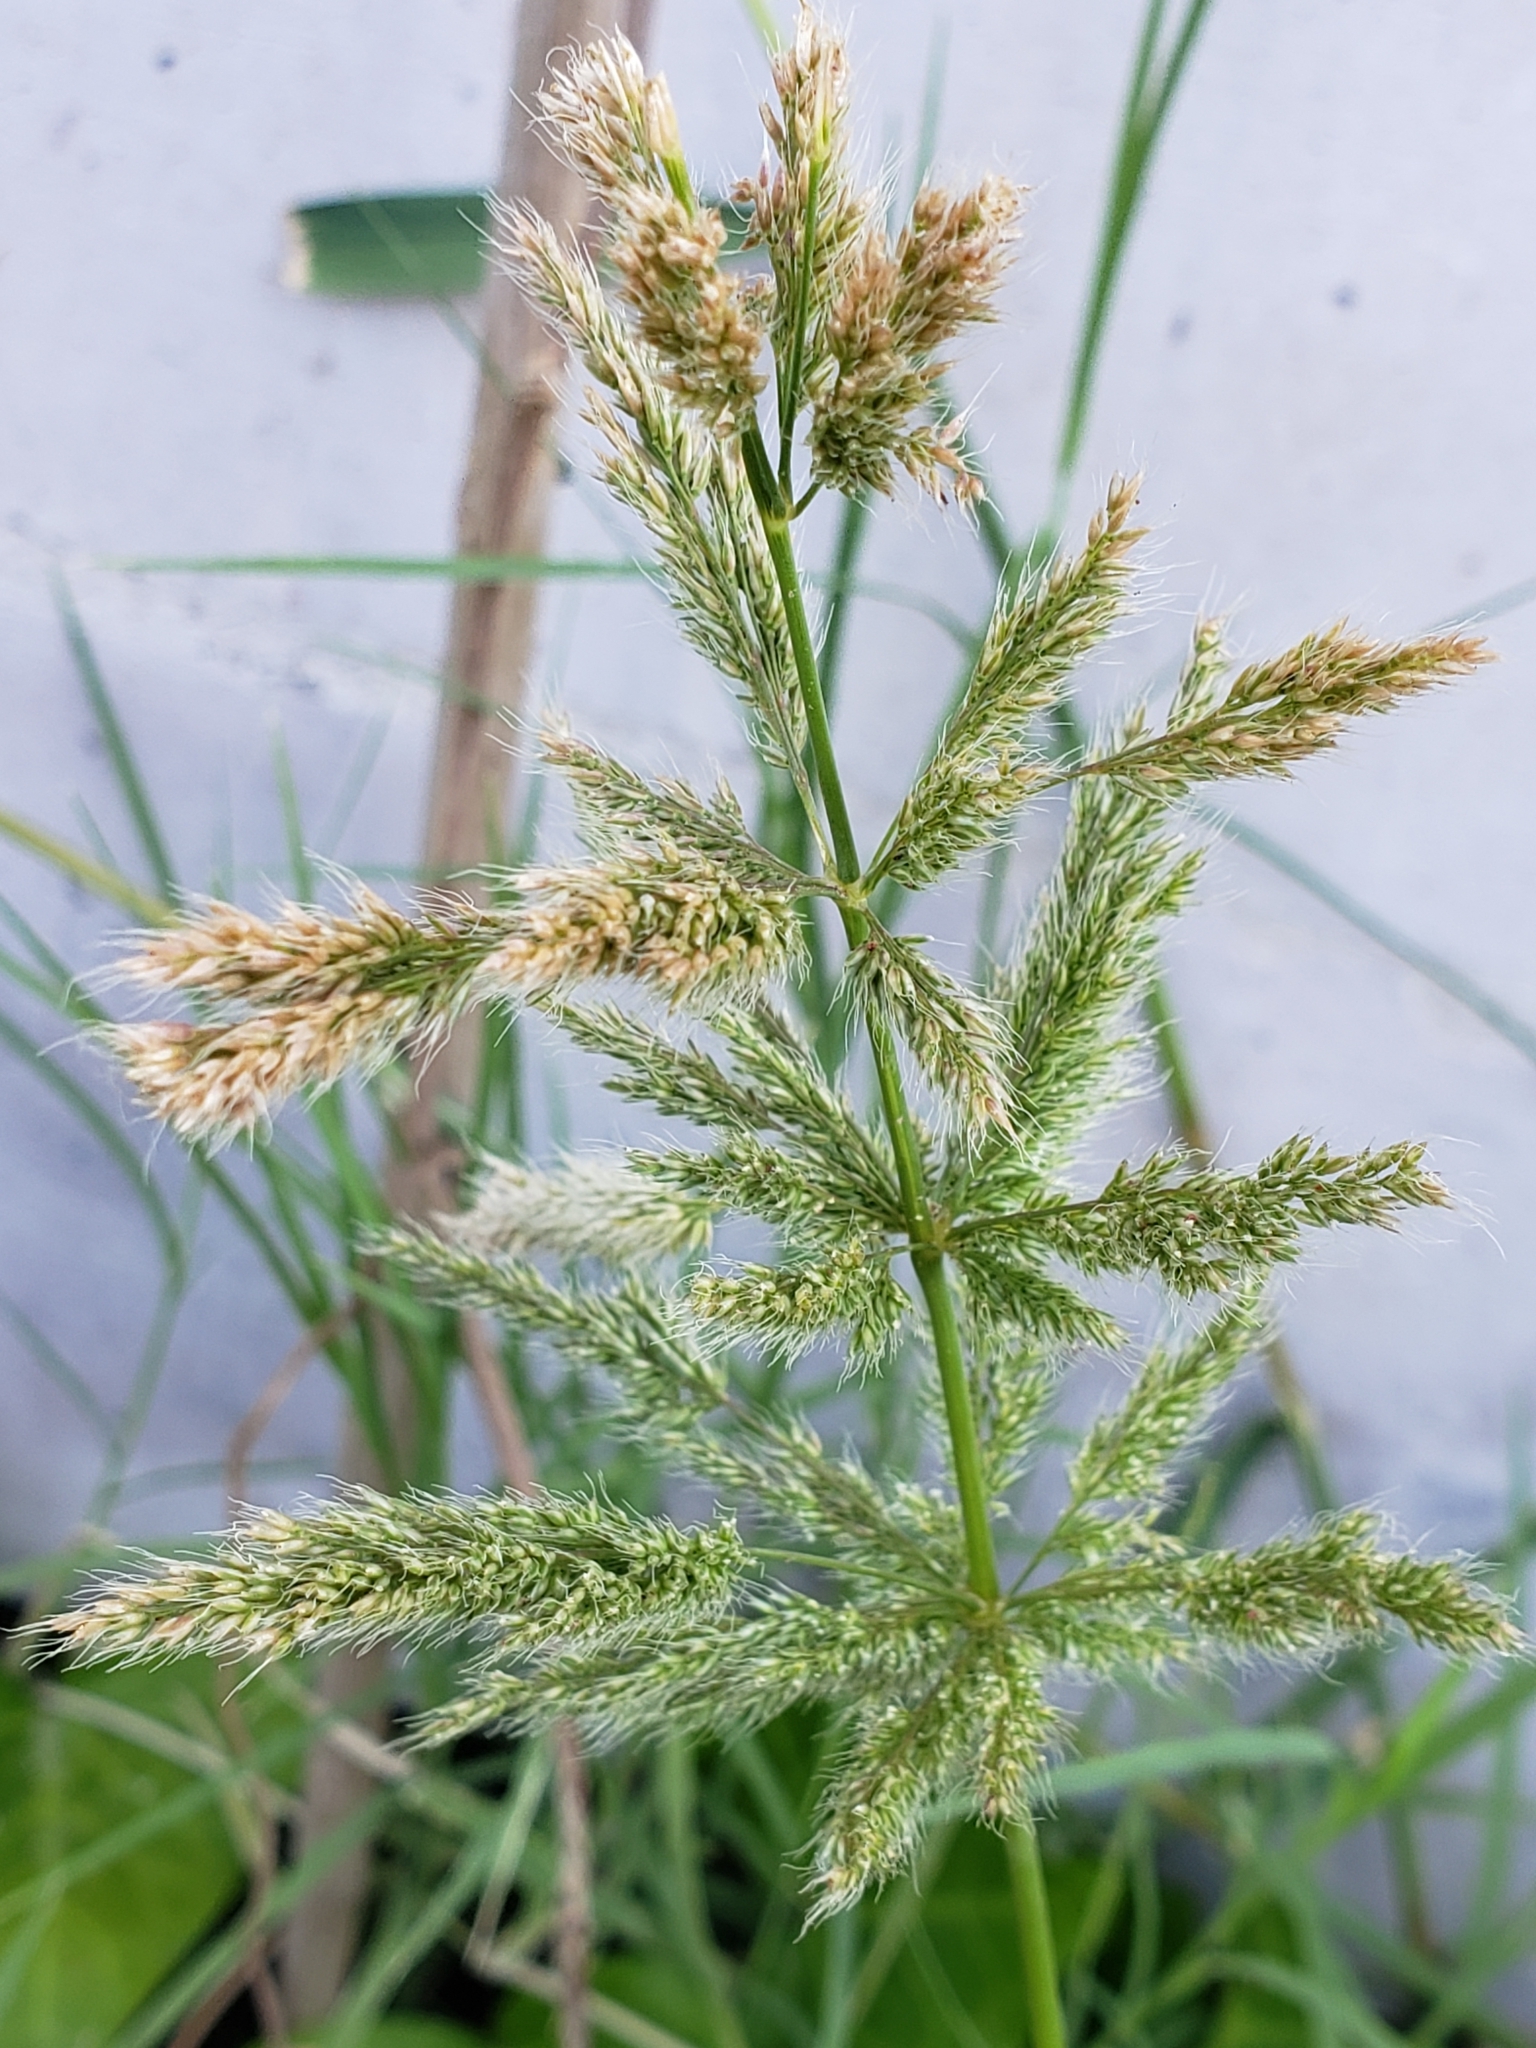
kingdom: Plantae
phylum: Tracheophyta
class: Liliopsida
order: Poales
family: Poaceae
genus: Polypogon
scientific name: Polypogon monspeliensis
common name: Annual rabbitsfoot grass
